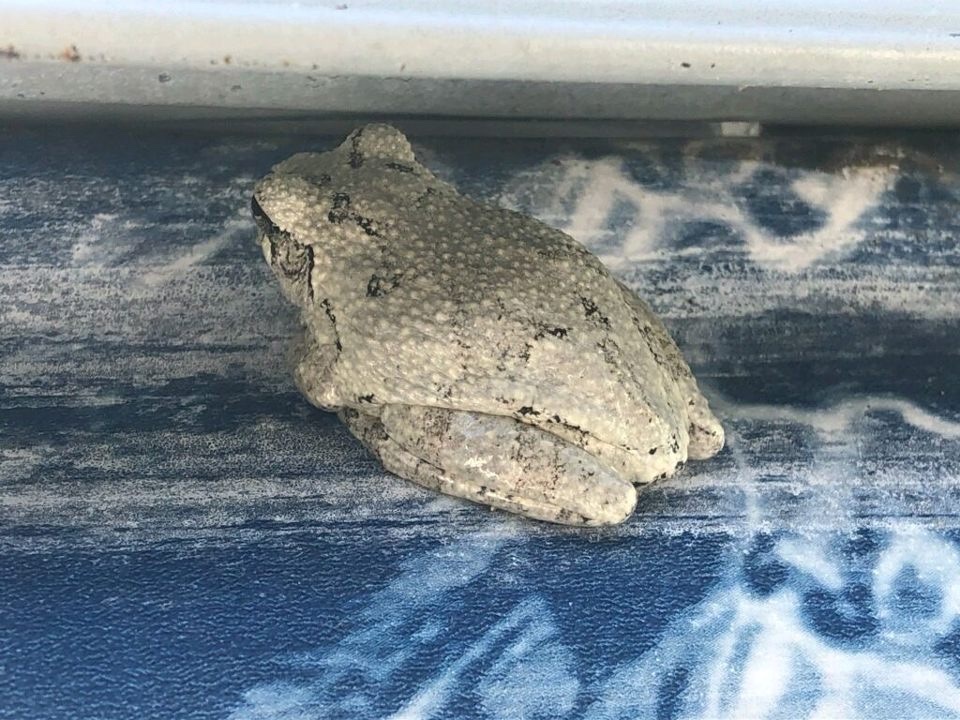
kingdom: Animalia
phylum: Chordata
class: Amphibia
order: Anura
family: Hylidae
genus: Dryophytes
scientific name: Dryophytes chrysoscelis
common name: Cope's gray treefrog
